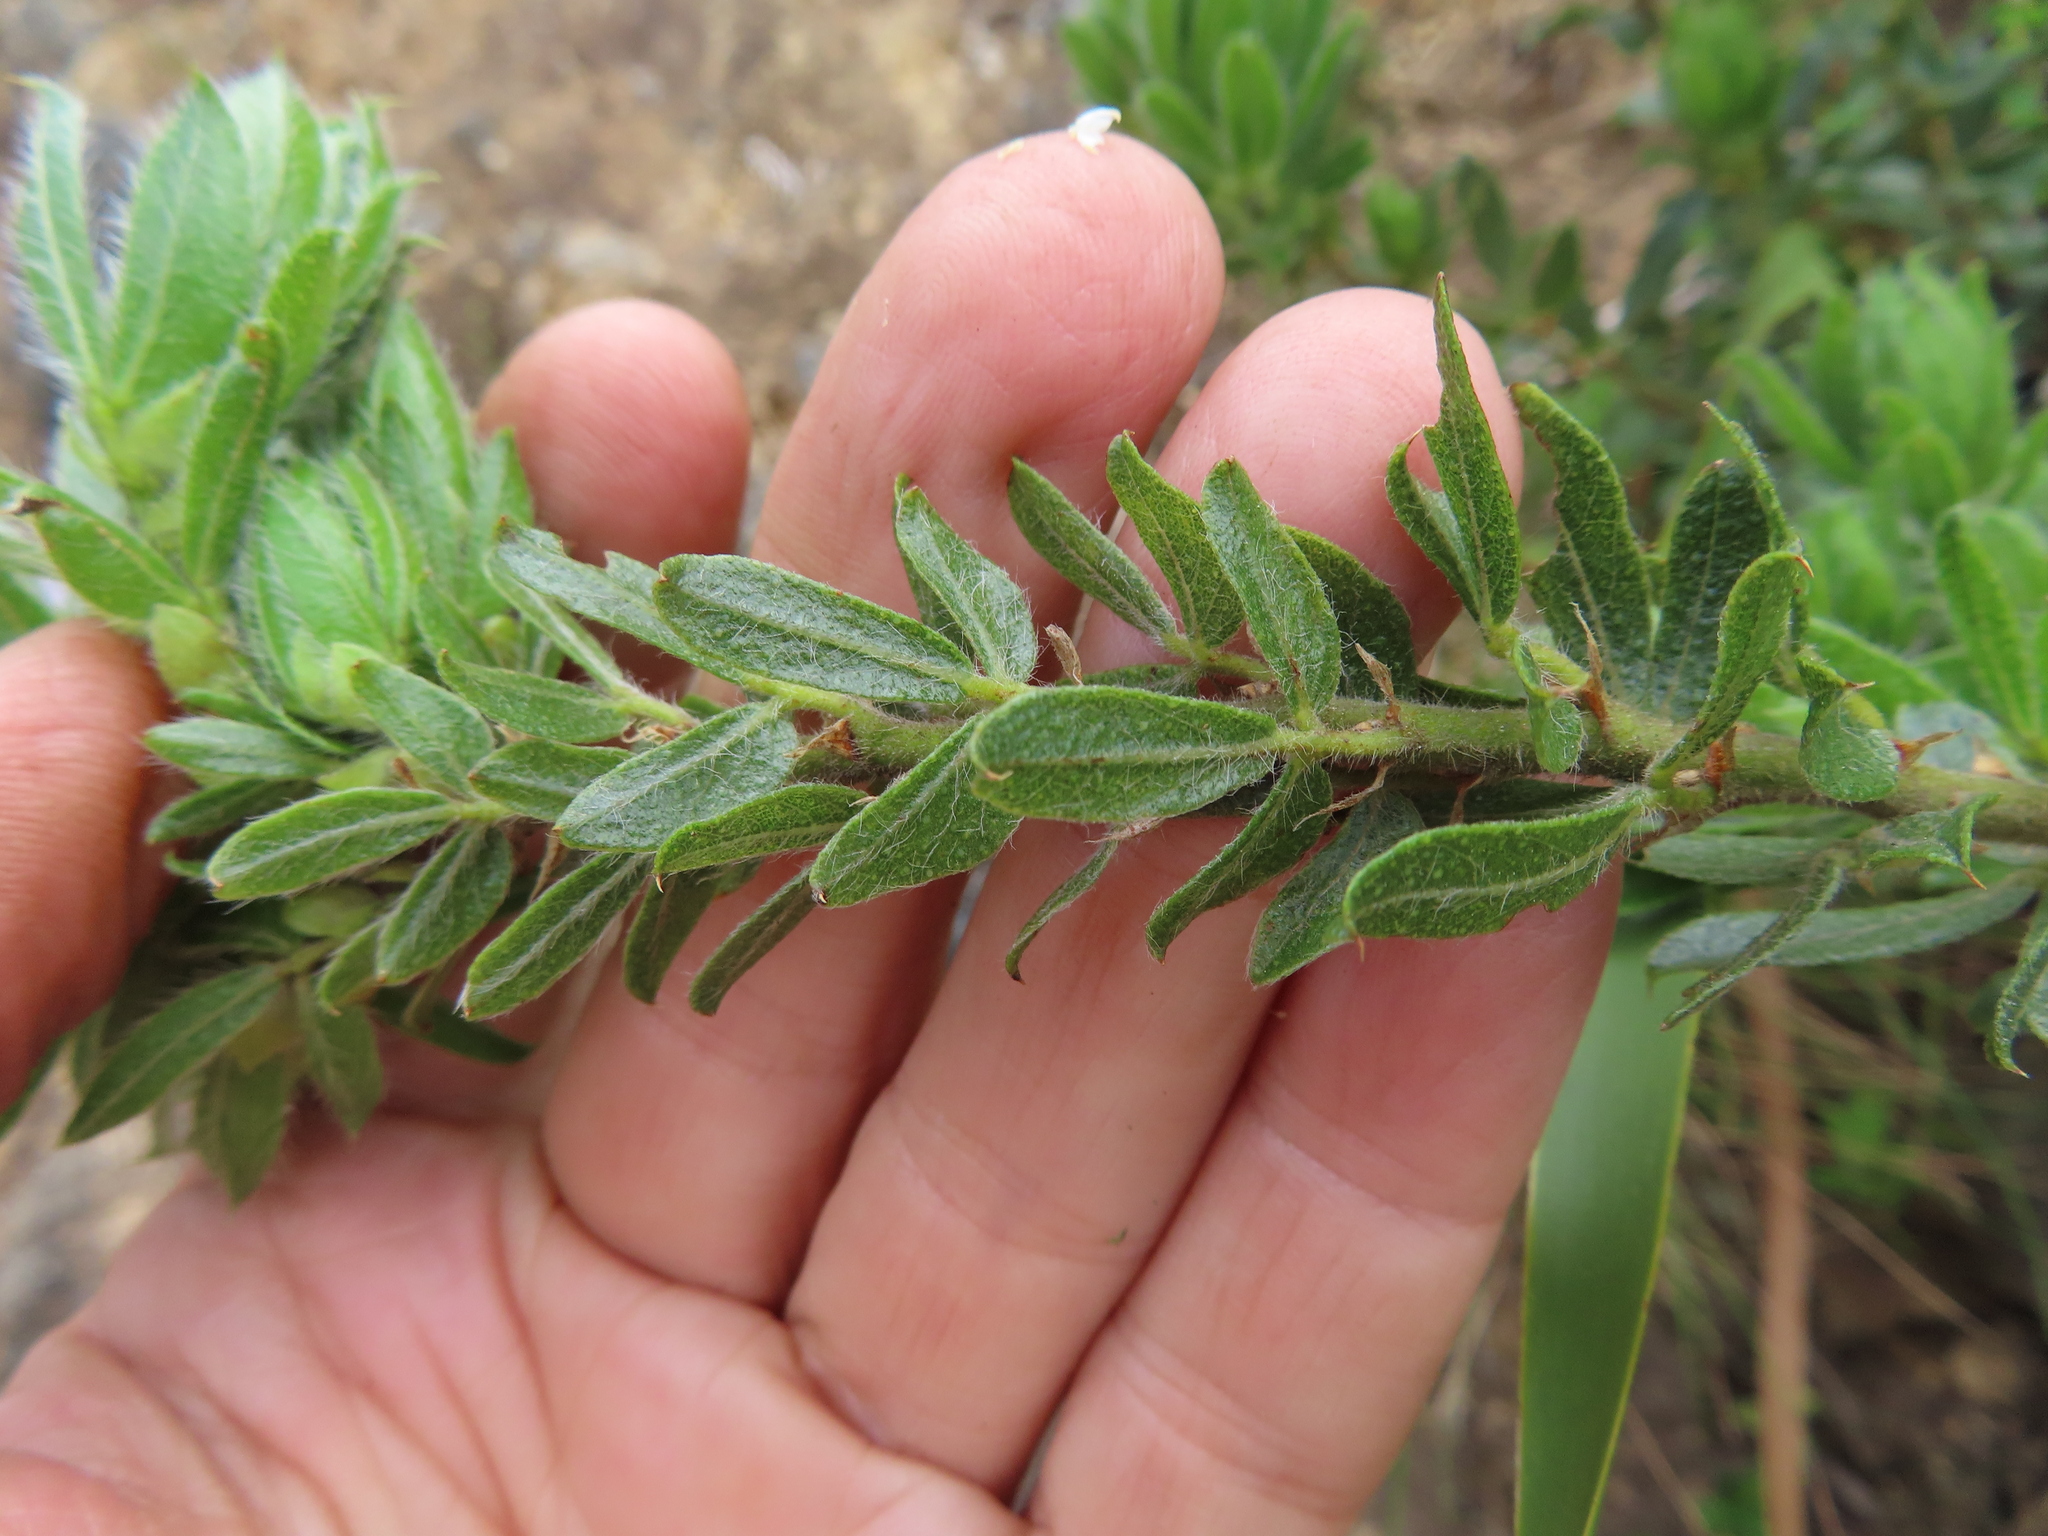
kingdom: Plantae
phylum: Tracheophyta
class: Magnoliopsida
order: Fabales
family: Fabaceae
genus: Psoralea
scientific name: Psoralea obliqua
